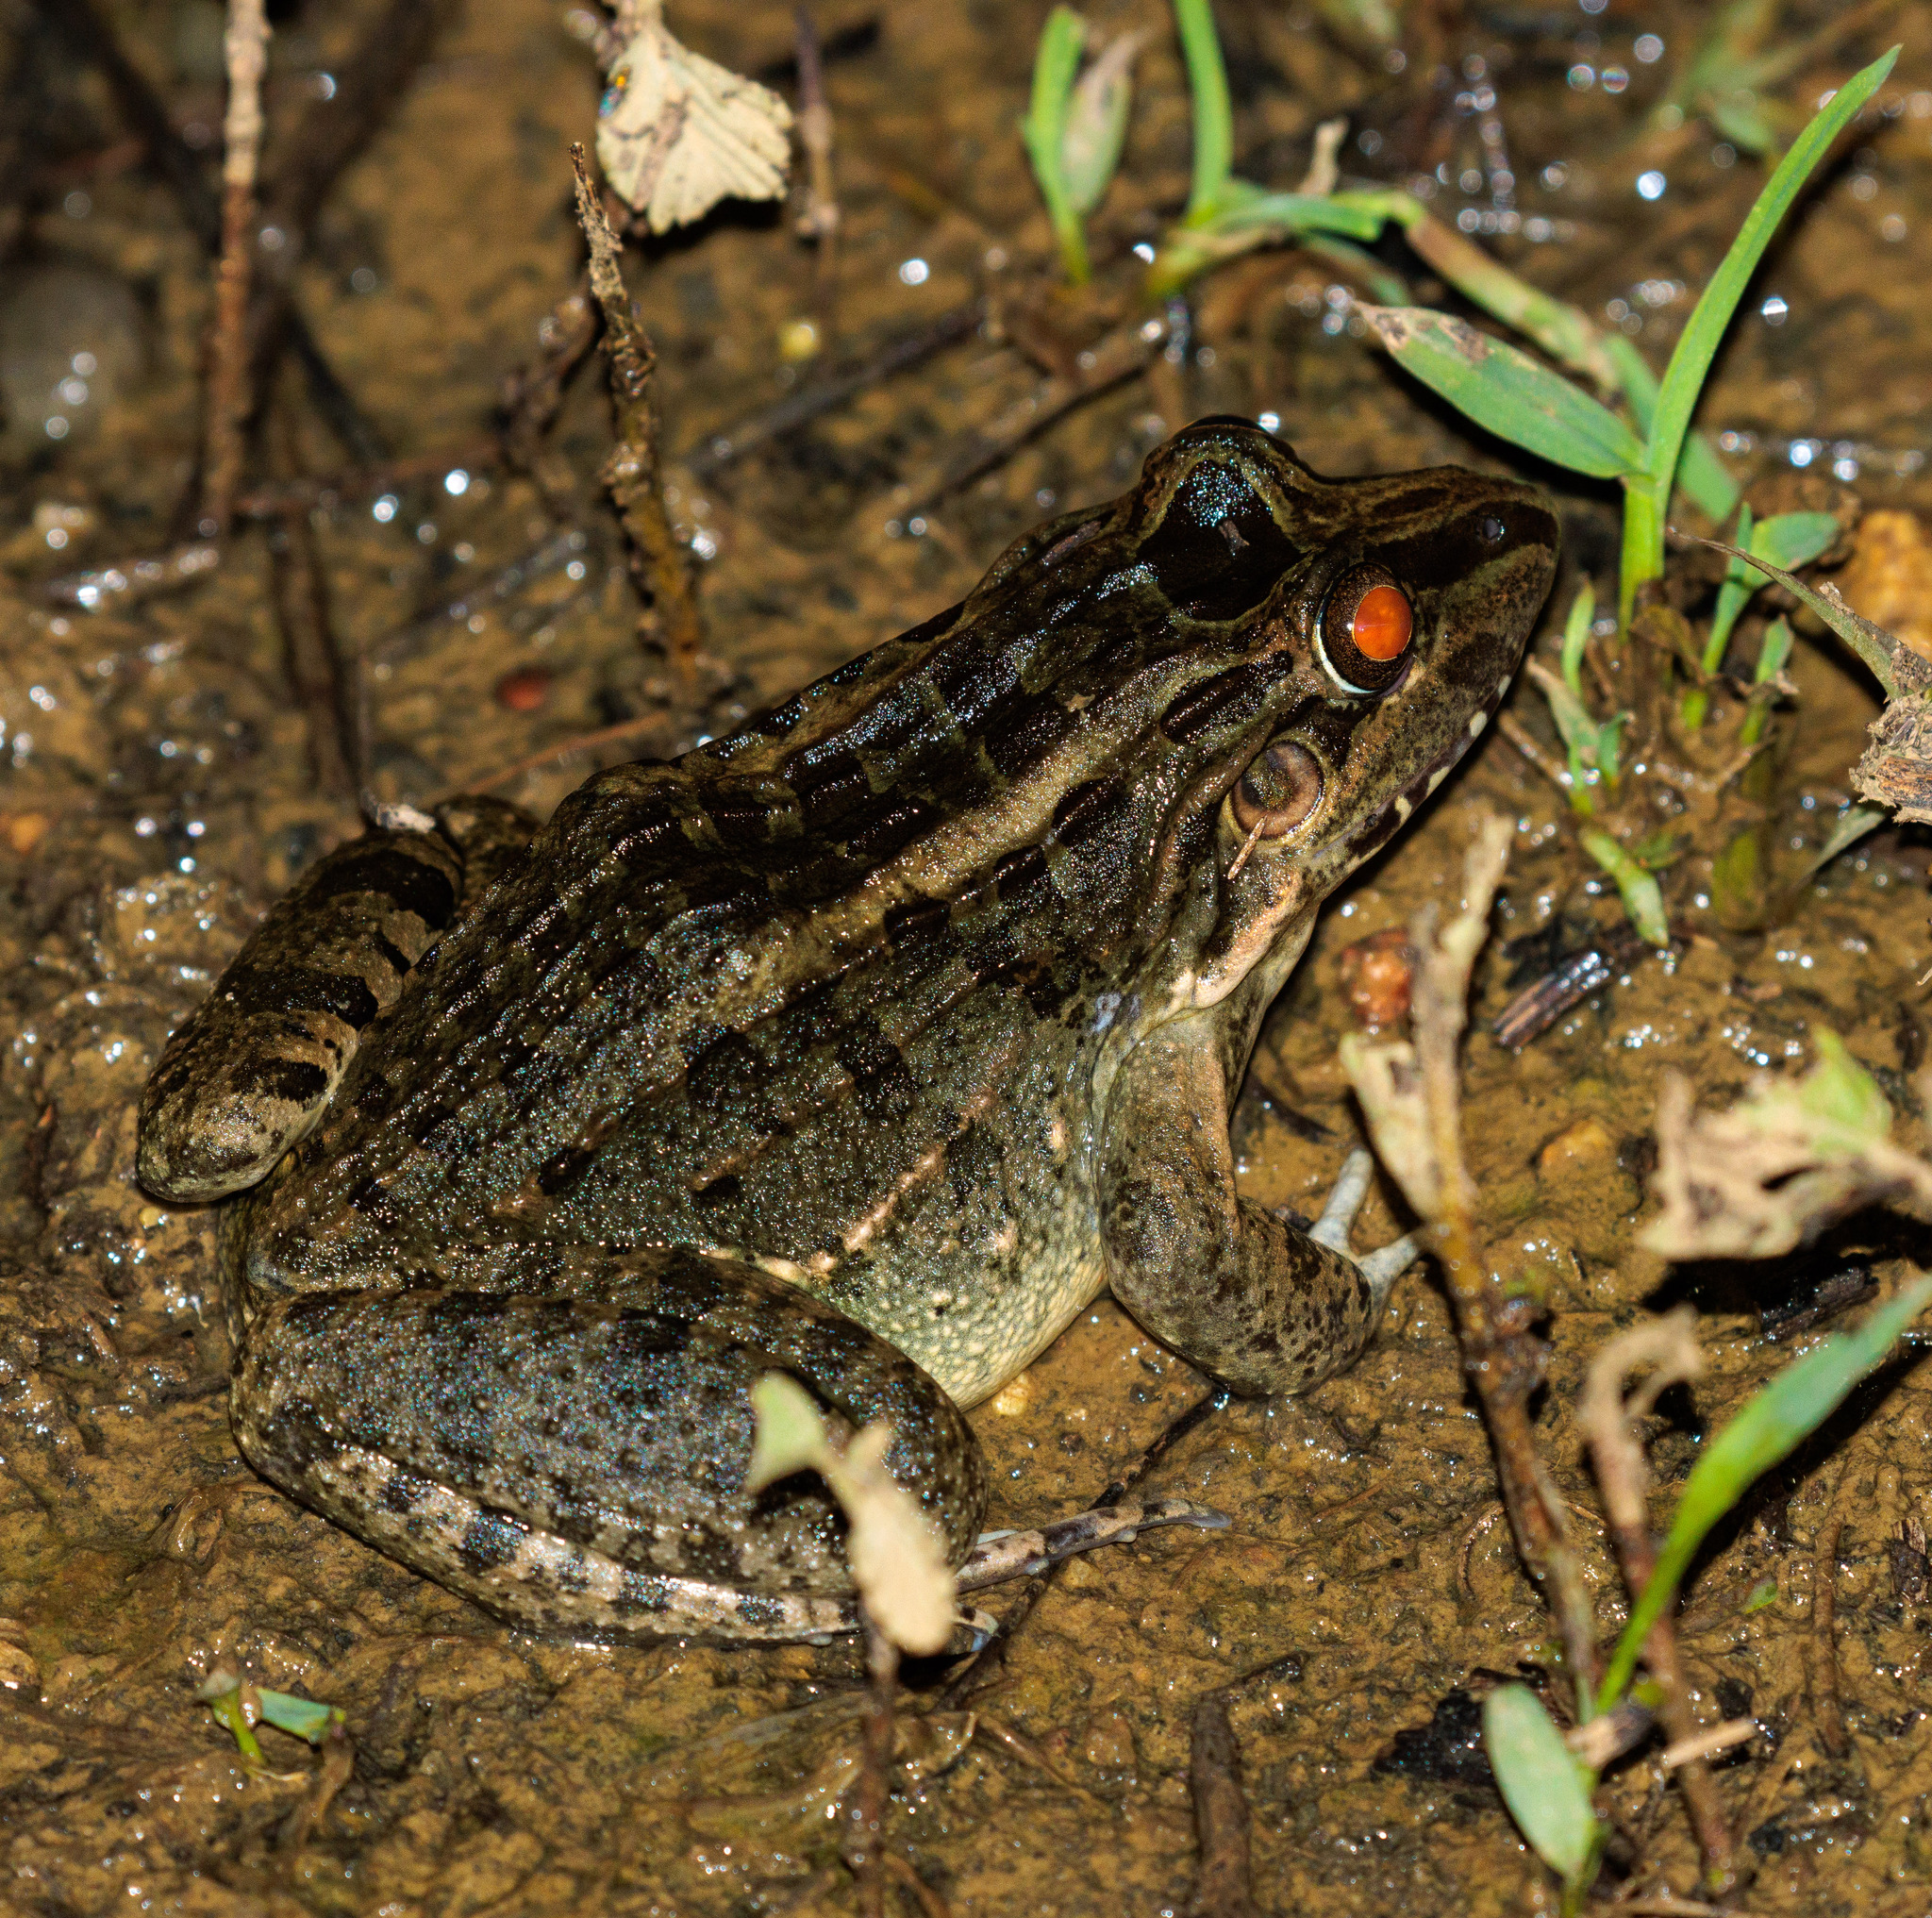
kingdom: Animalia
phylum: Chordata
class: Amphibia
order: Anura
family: Leptodactylidae
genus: Leptodactylus
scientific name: Leptodactylus macrosternum
